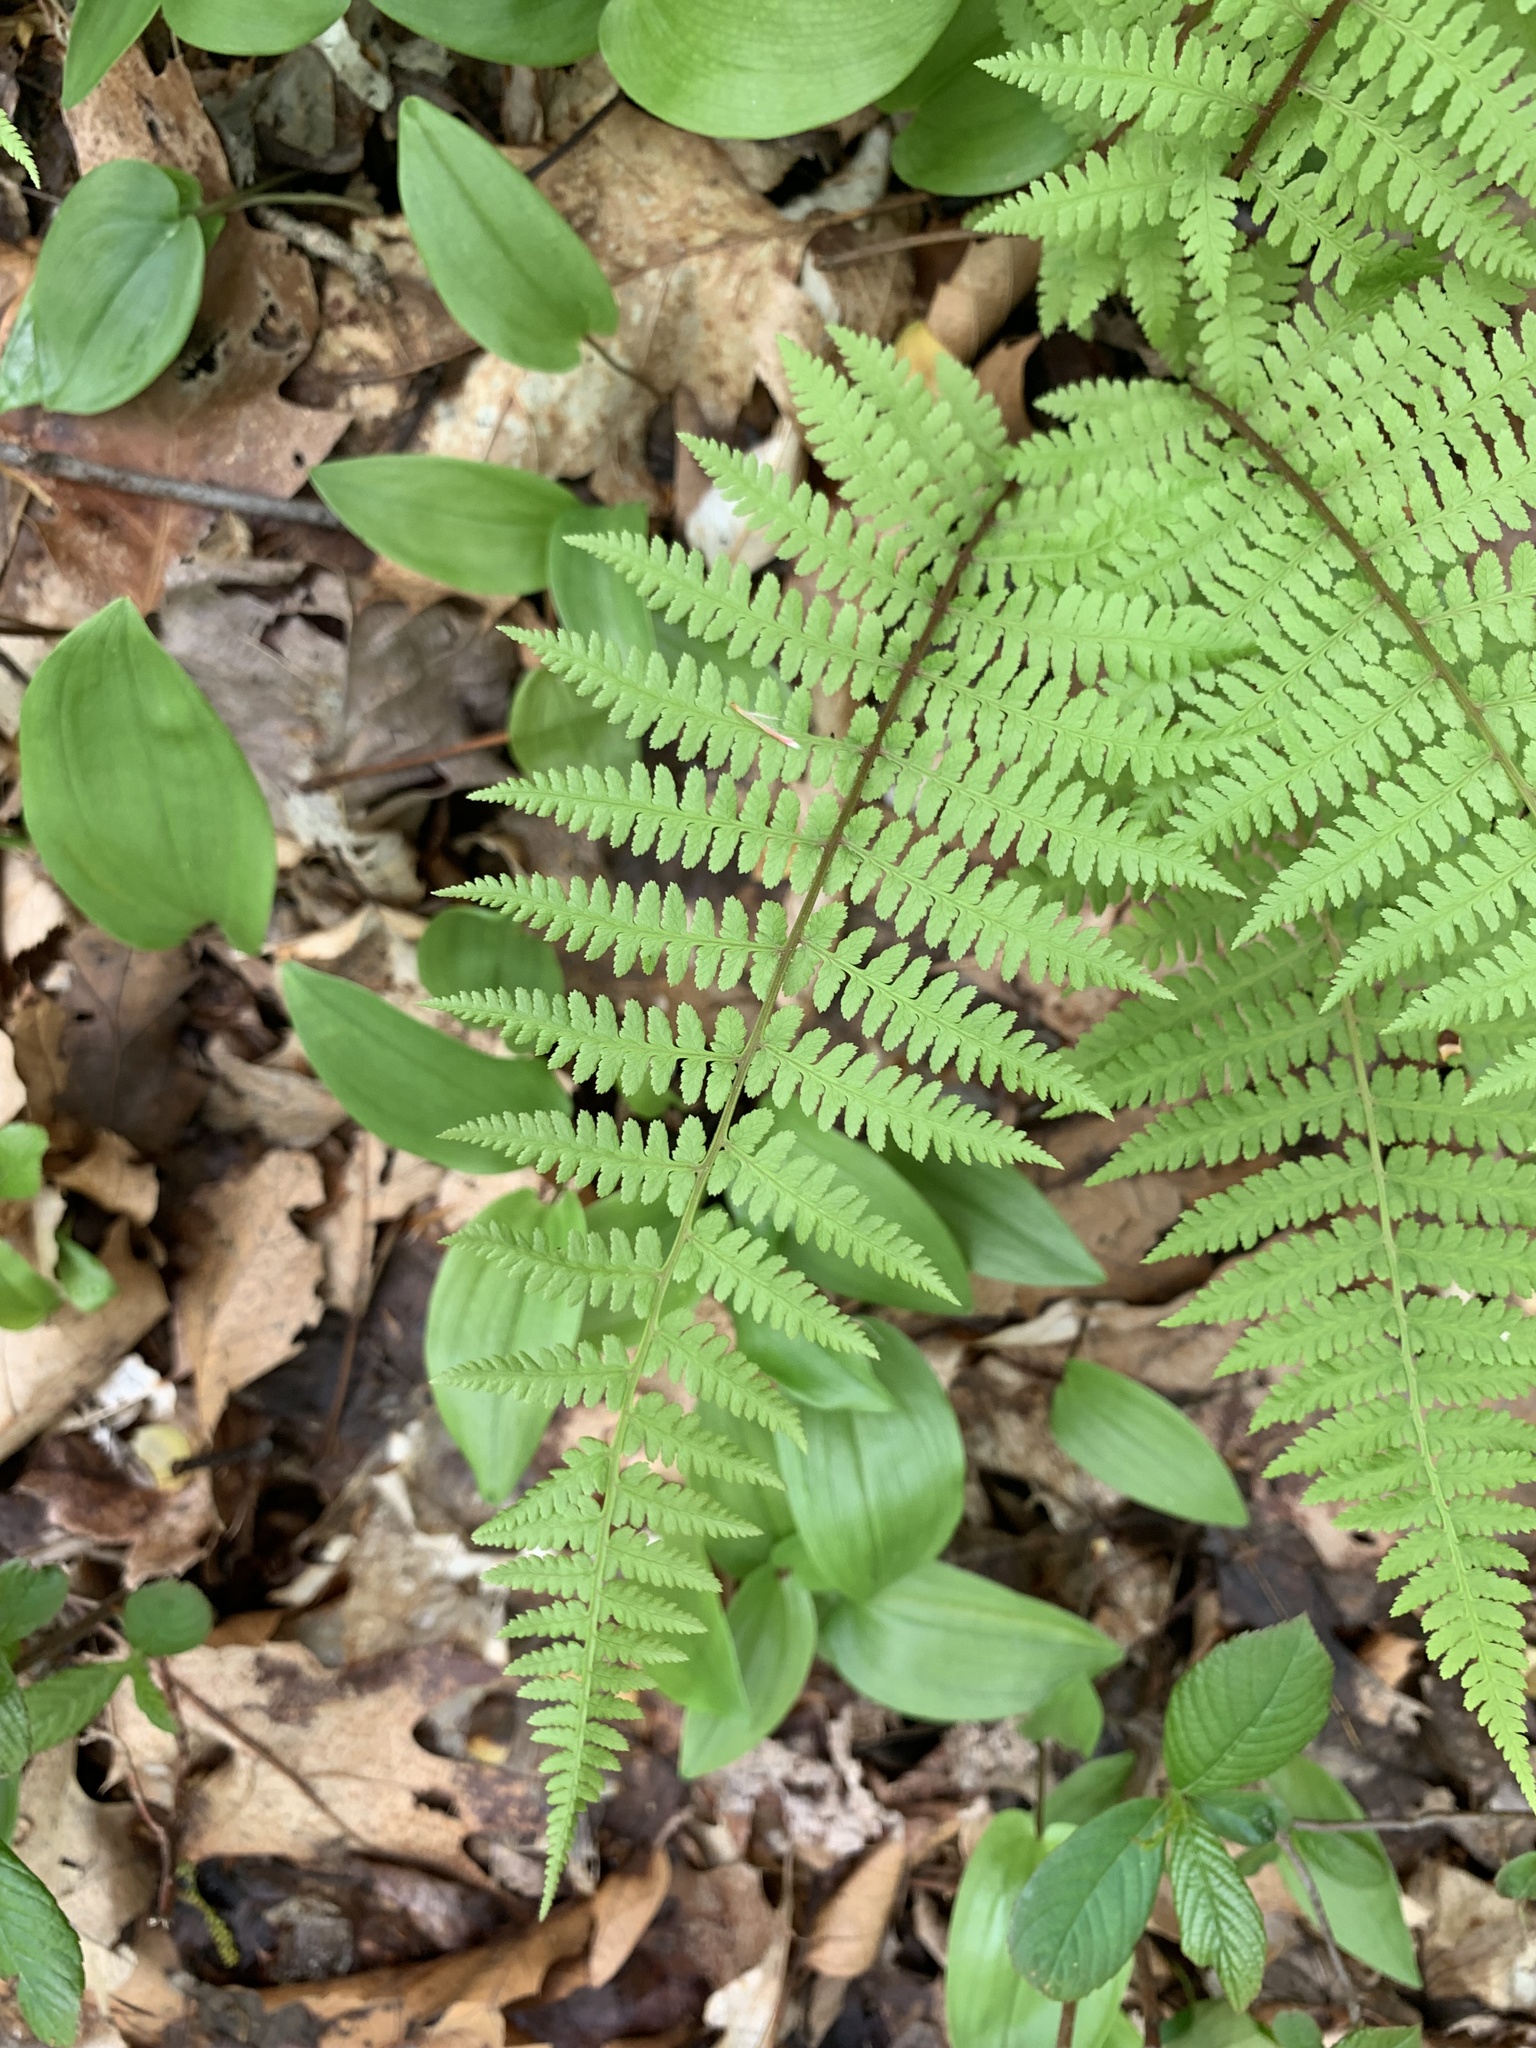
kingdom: Plantae
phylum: Tracheophyta
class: Polypodiopsida
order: Polypodiales
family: Athyriaceae
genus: Athyrium
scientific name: Athyrium asplenioides
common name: Southern lady fern
